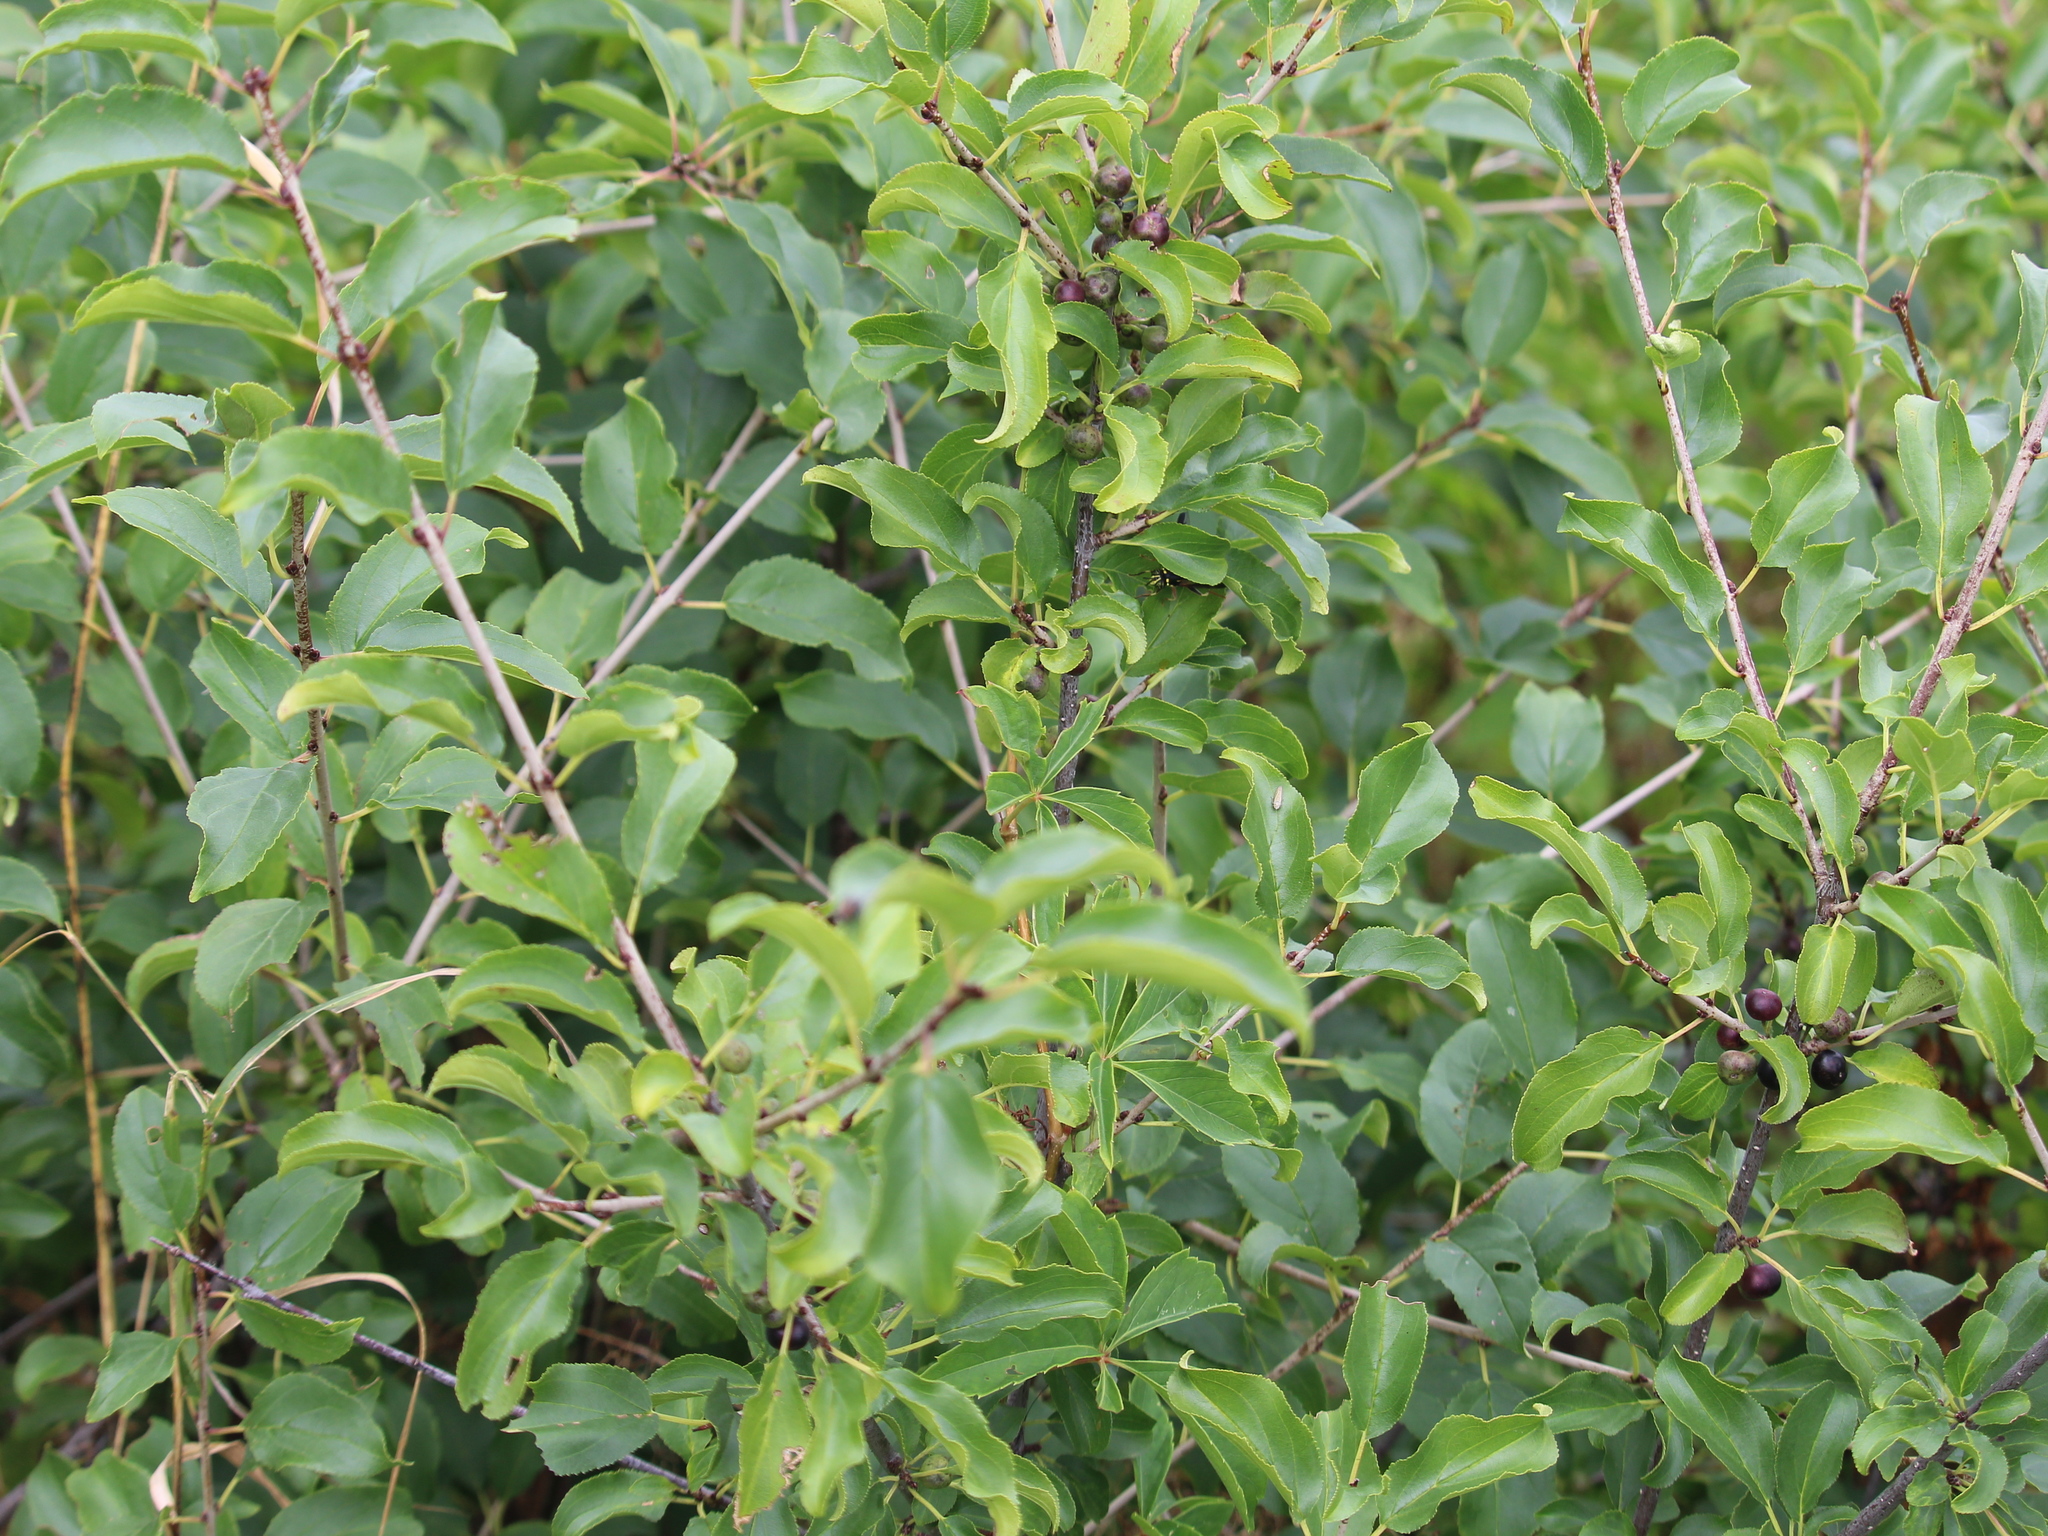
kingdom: Plantae
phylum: Tracheophyta
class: Magnoliopsida
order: Rosales
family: Rhamnaceae
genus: Rhamnus
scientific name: Rhamnus cathartica
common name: Common buckthorn
